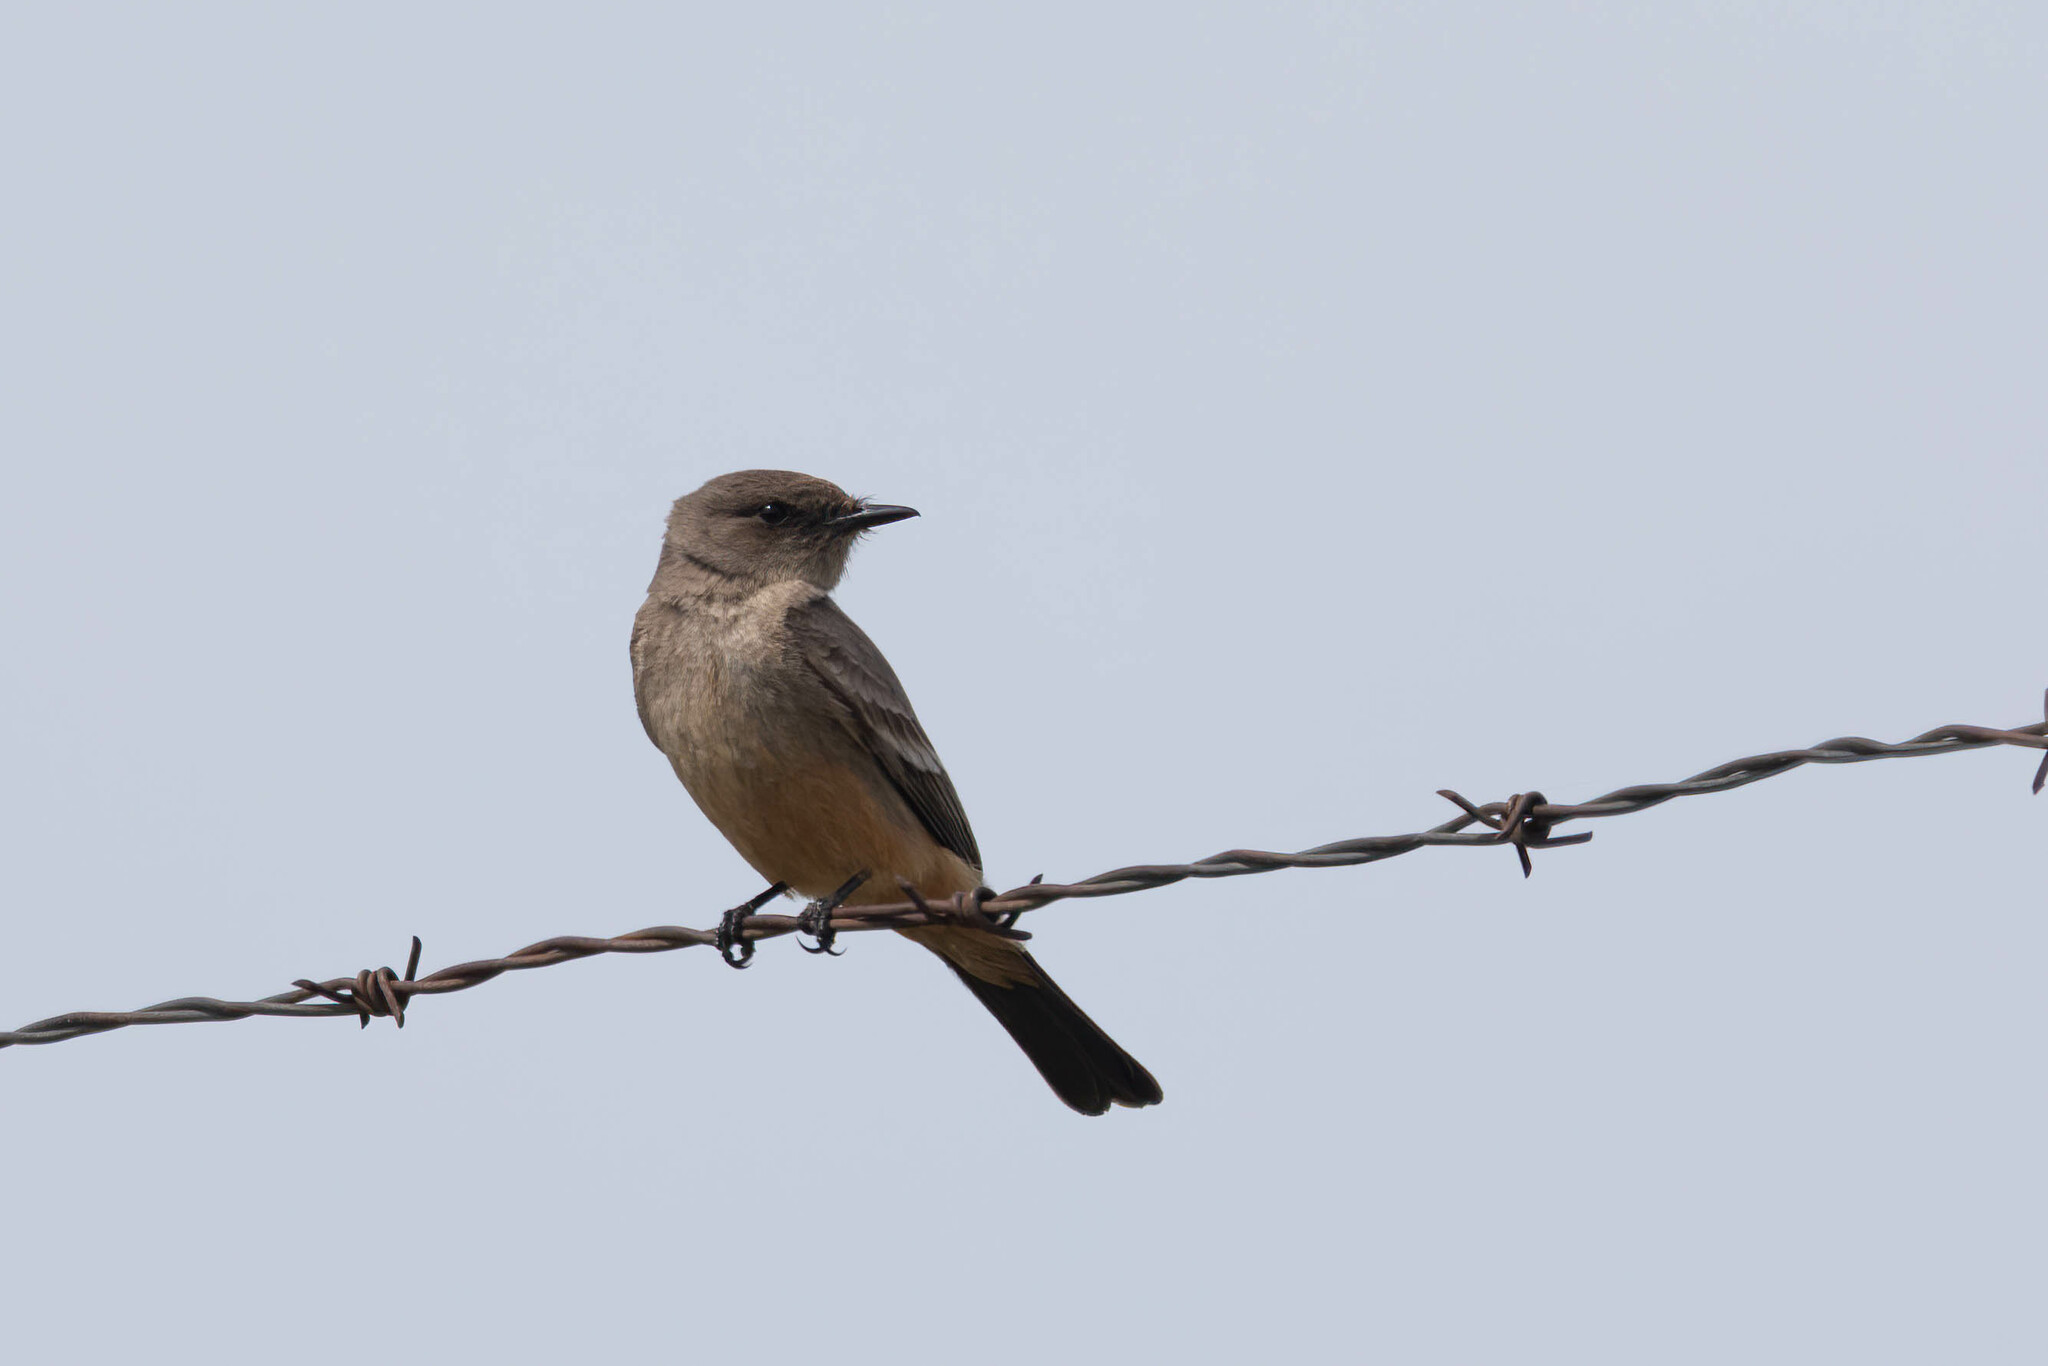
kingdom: Animalia
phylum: Chordata
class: Aves
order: Passeriformes
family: Tyrannidae
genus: Sayornis
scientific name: Sayornis saya
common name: Say's phoebe
